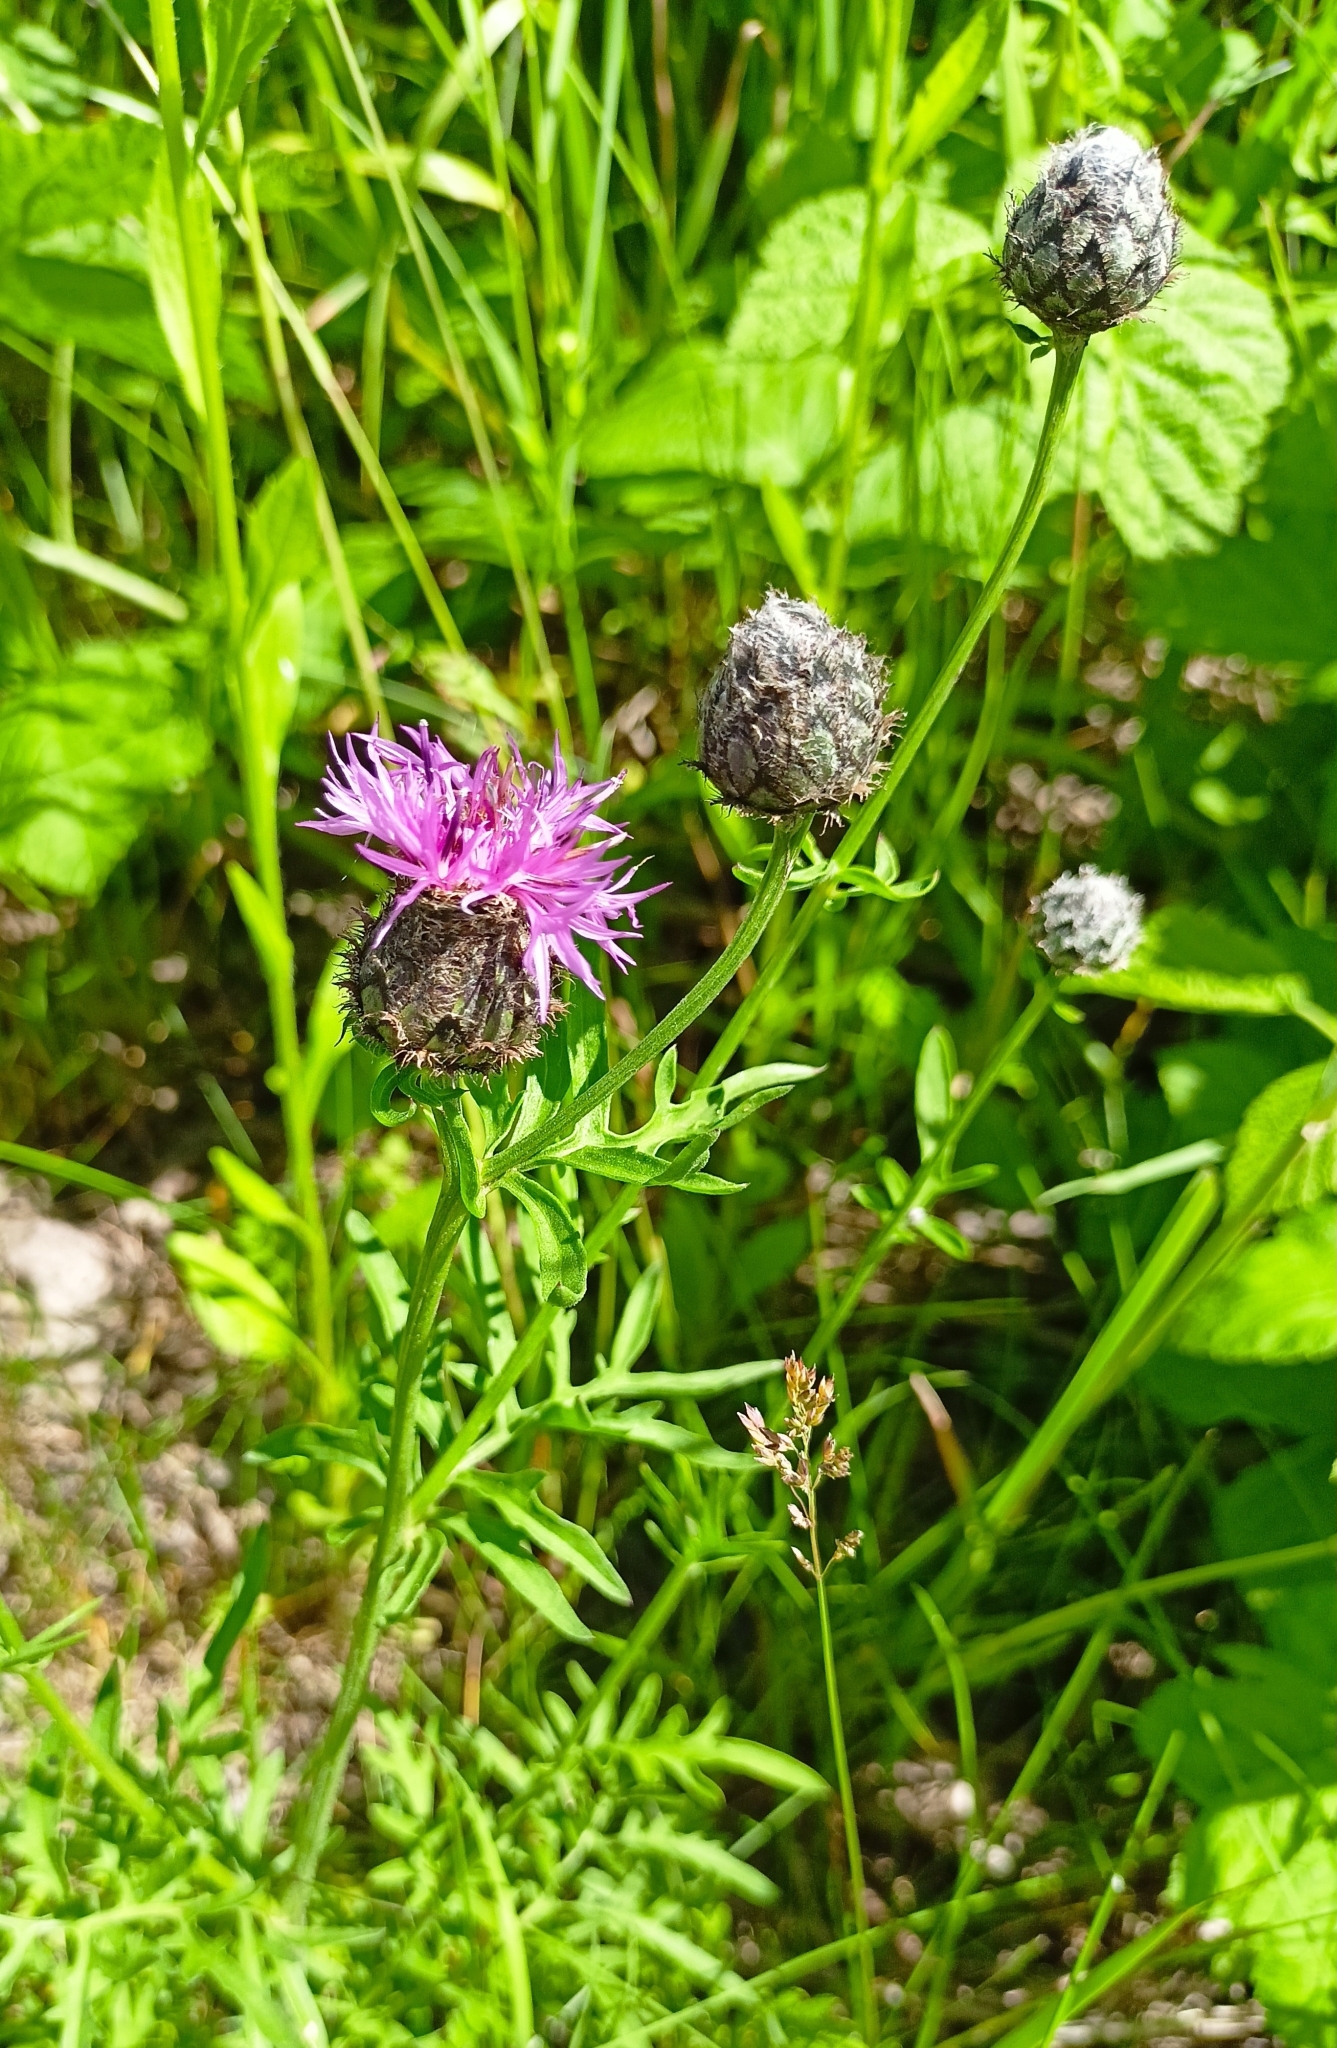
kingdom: Plantae
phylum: Tracheophyta
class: Magnoliopsida
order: Asterales
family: Asteraceae
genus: Centaurea
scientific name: Centaurea scabiosa
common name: Greater knapweed
